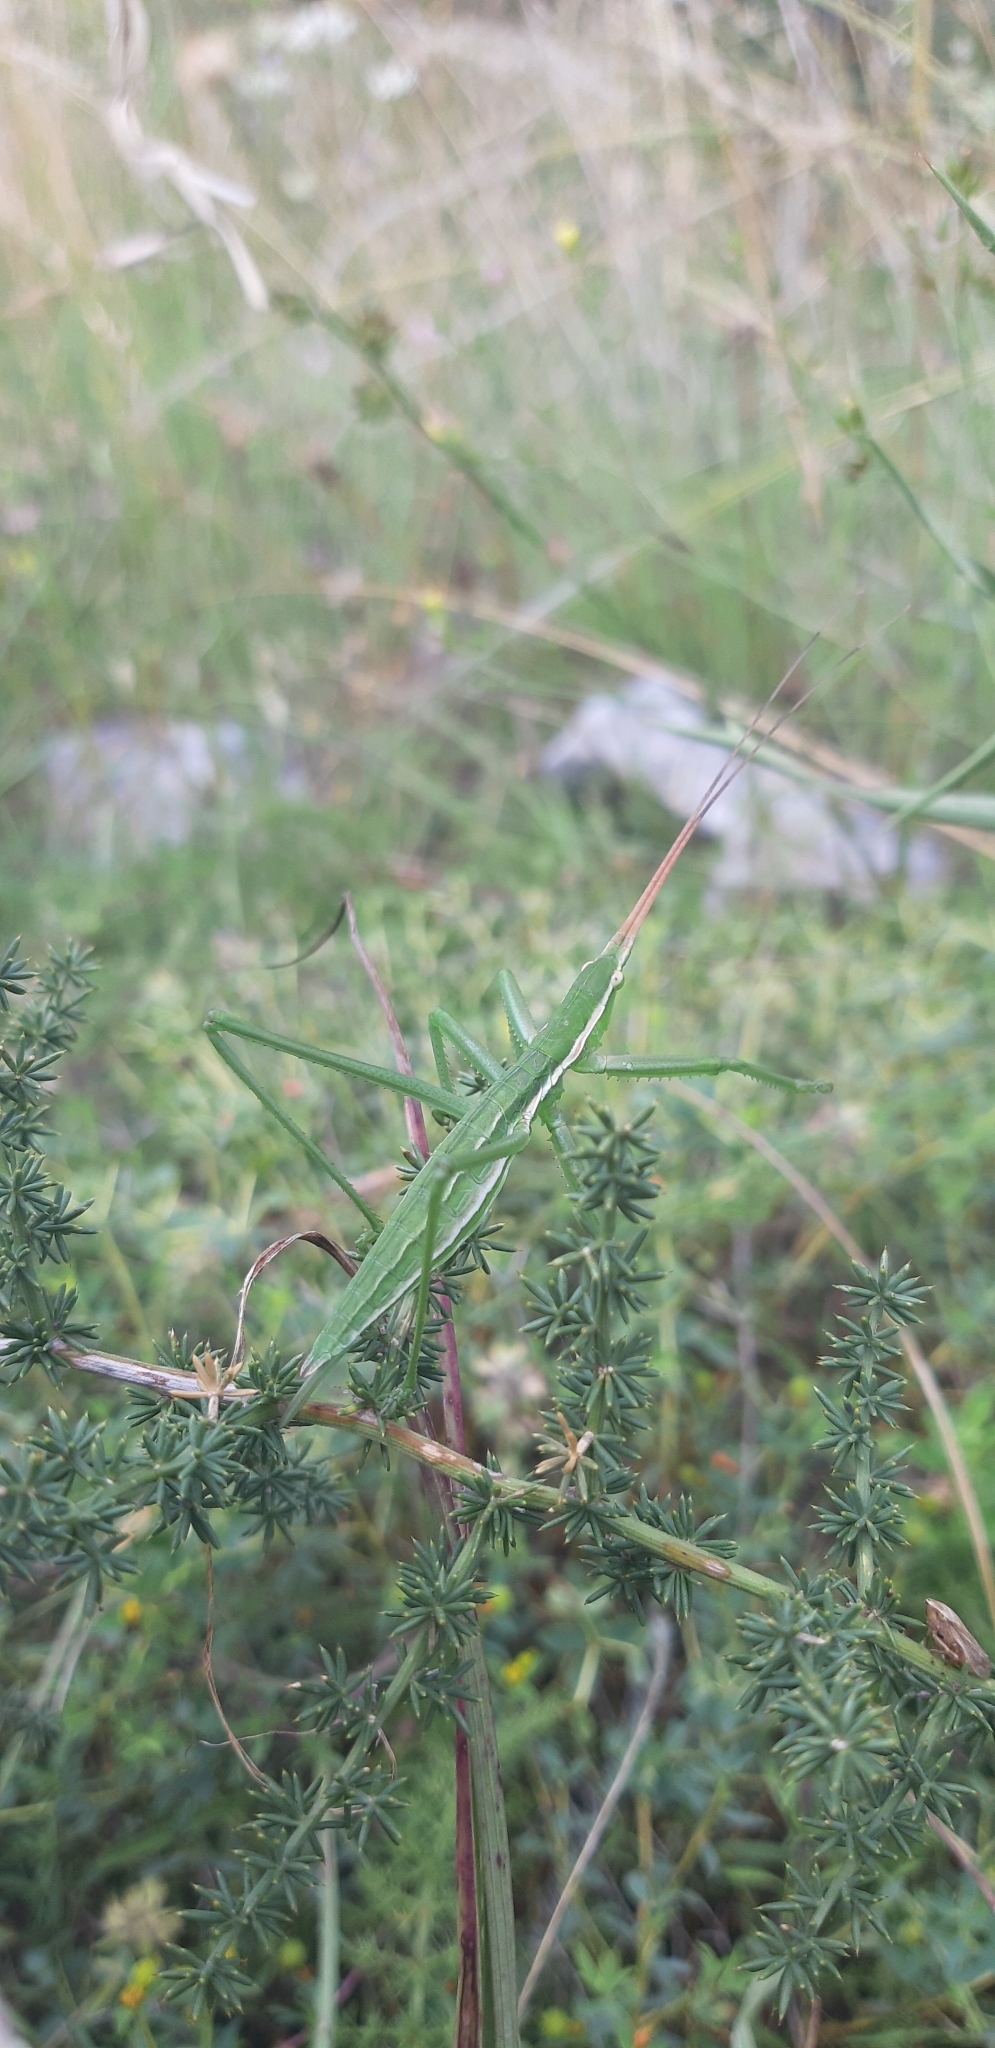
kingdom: Animalia
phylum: Arthropoda
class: Insecta
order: Orthoptera
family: Tettigoniidae
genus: Saga
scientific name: Saga pedo
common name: Common predatory bush-cricket
